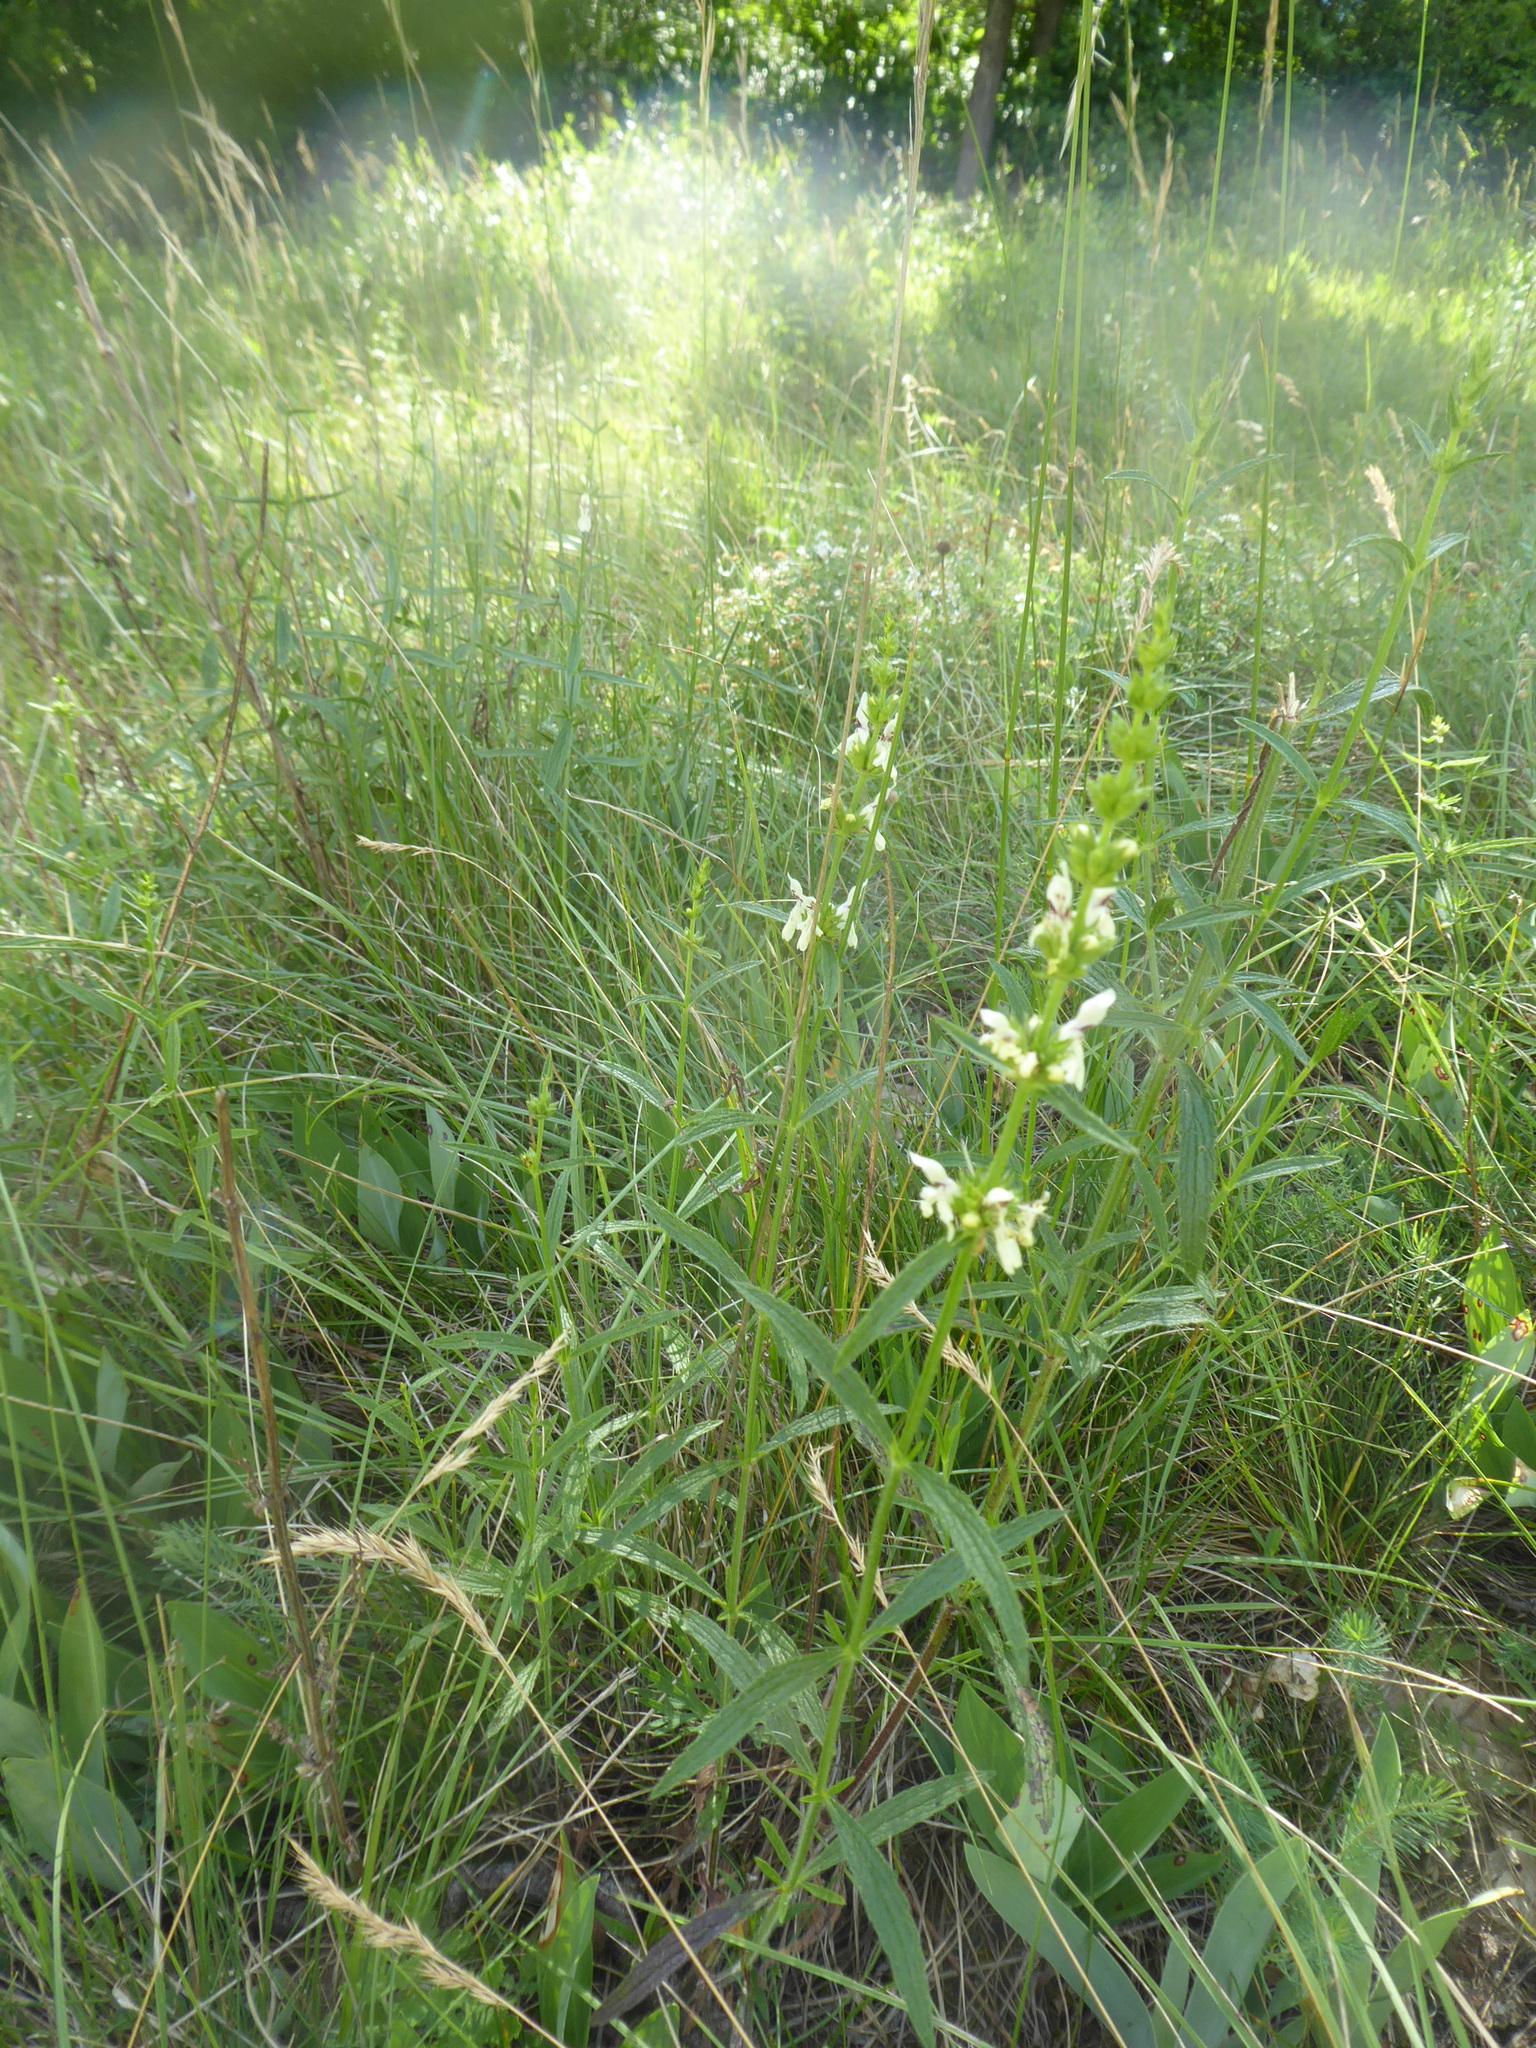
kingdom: Plantae
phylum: Tracheophyta
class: Magnoliopsida
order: Lamiales
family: Lamiaceae
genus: Stachys
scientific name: Stachys recta
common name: Perennial yellow-woundwort
